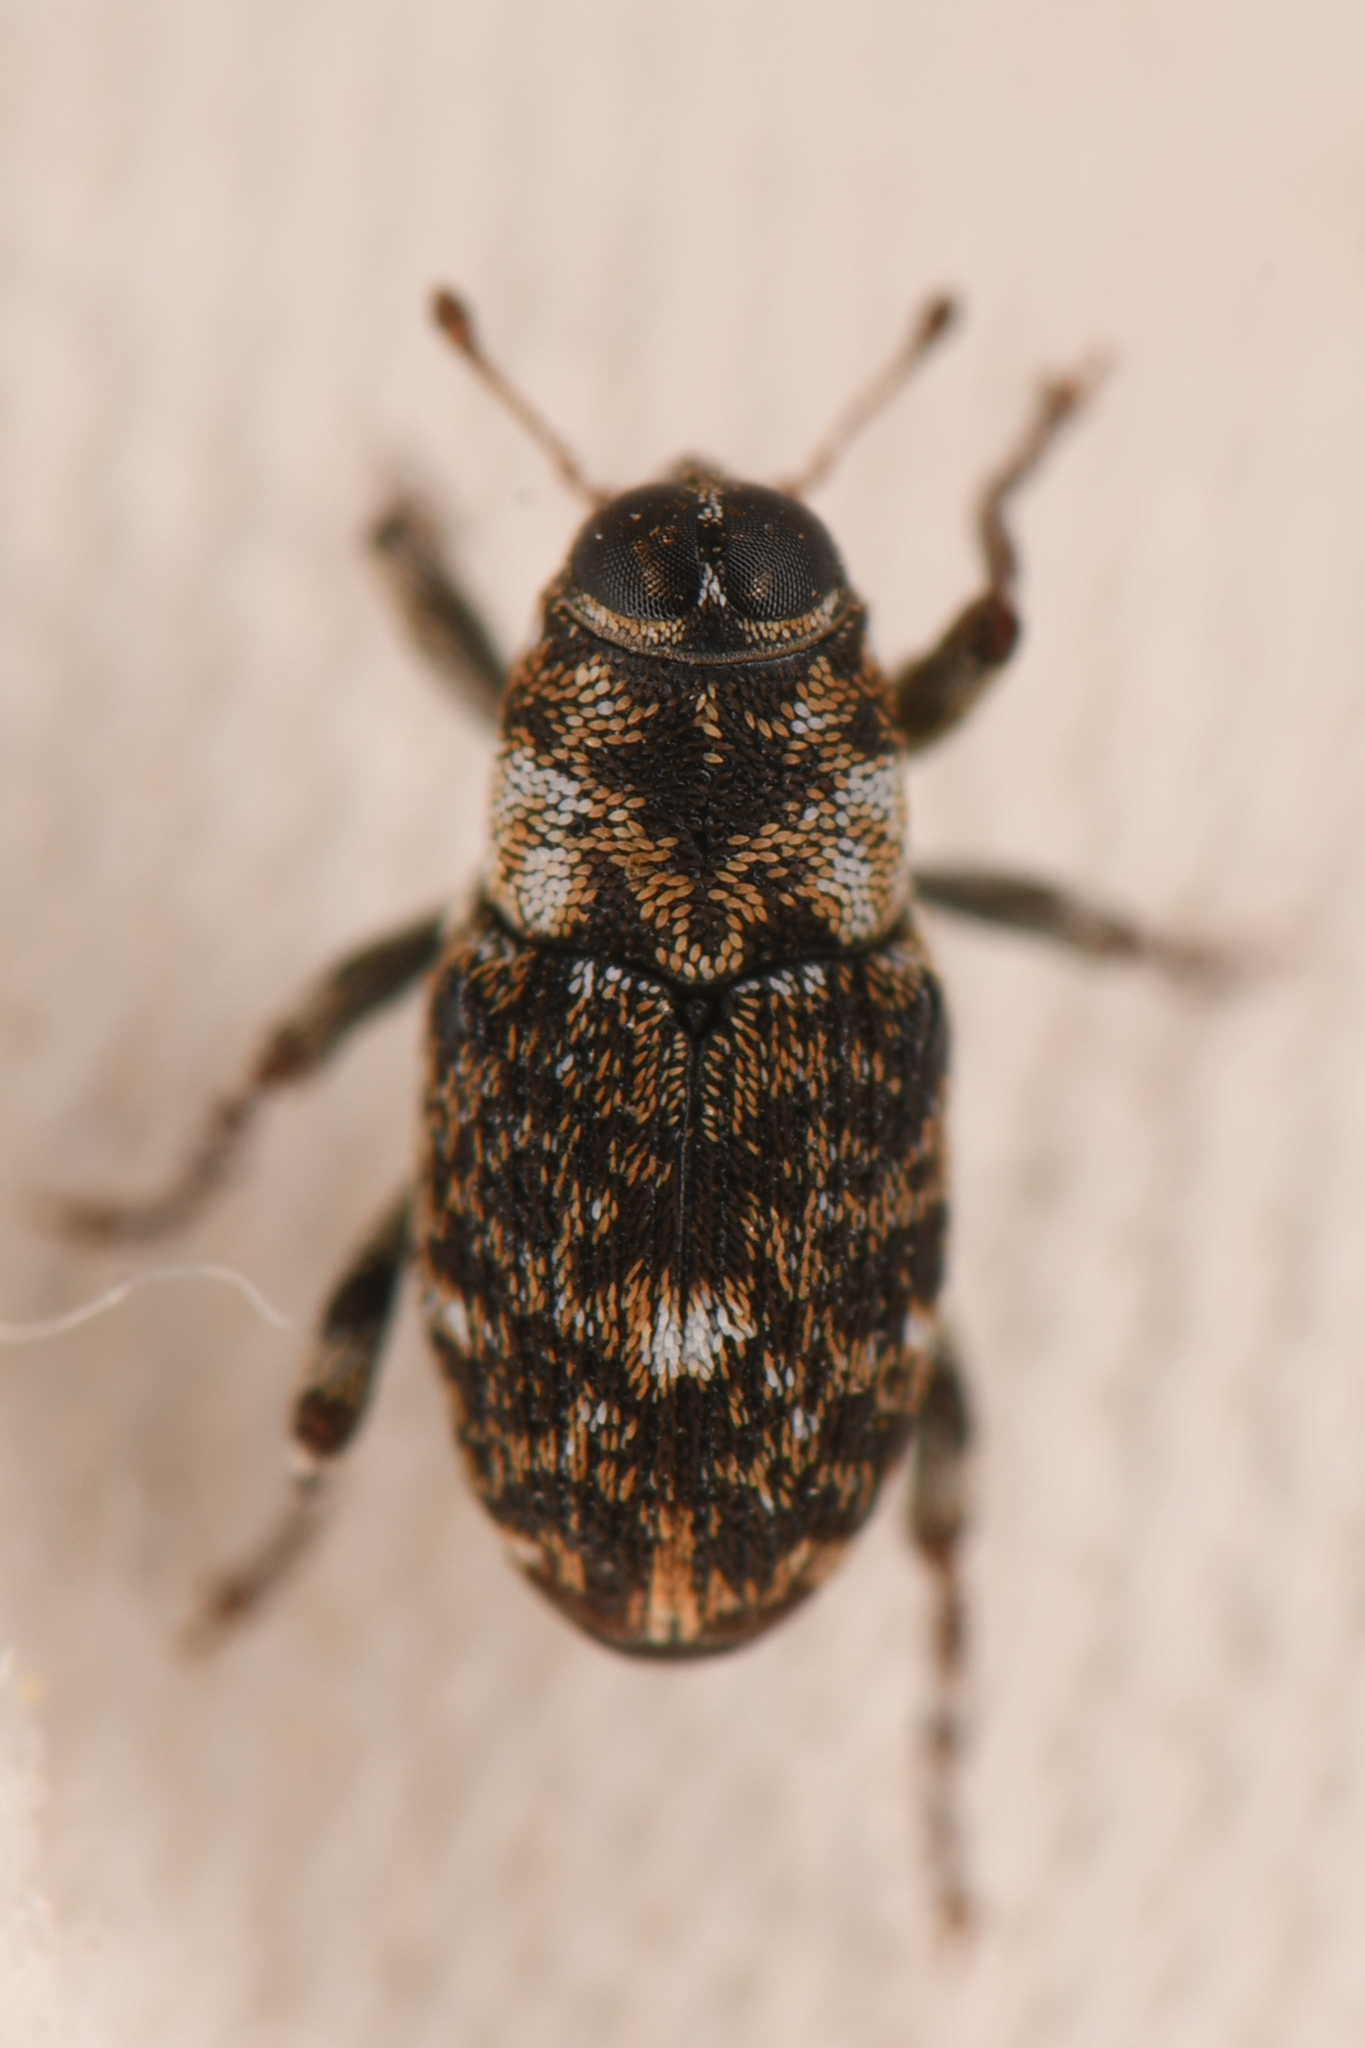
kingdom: Animalia
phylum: Arthropoda
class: Insecta
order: Coleoptera
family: Curculionidae
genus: Bagous
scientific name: Bagous californicus
